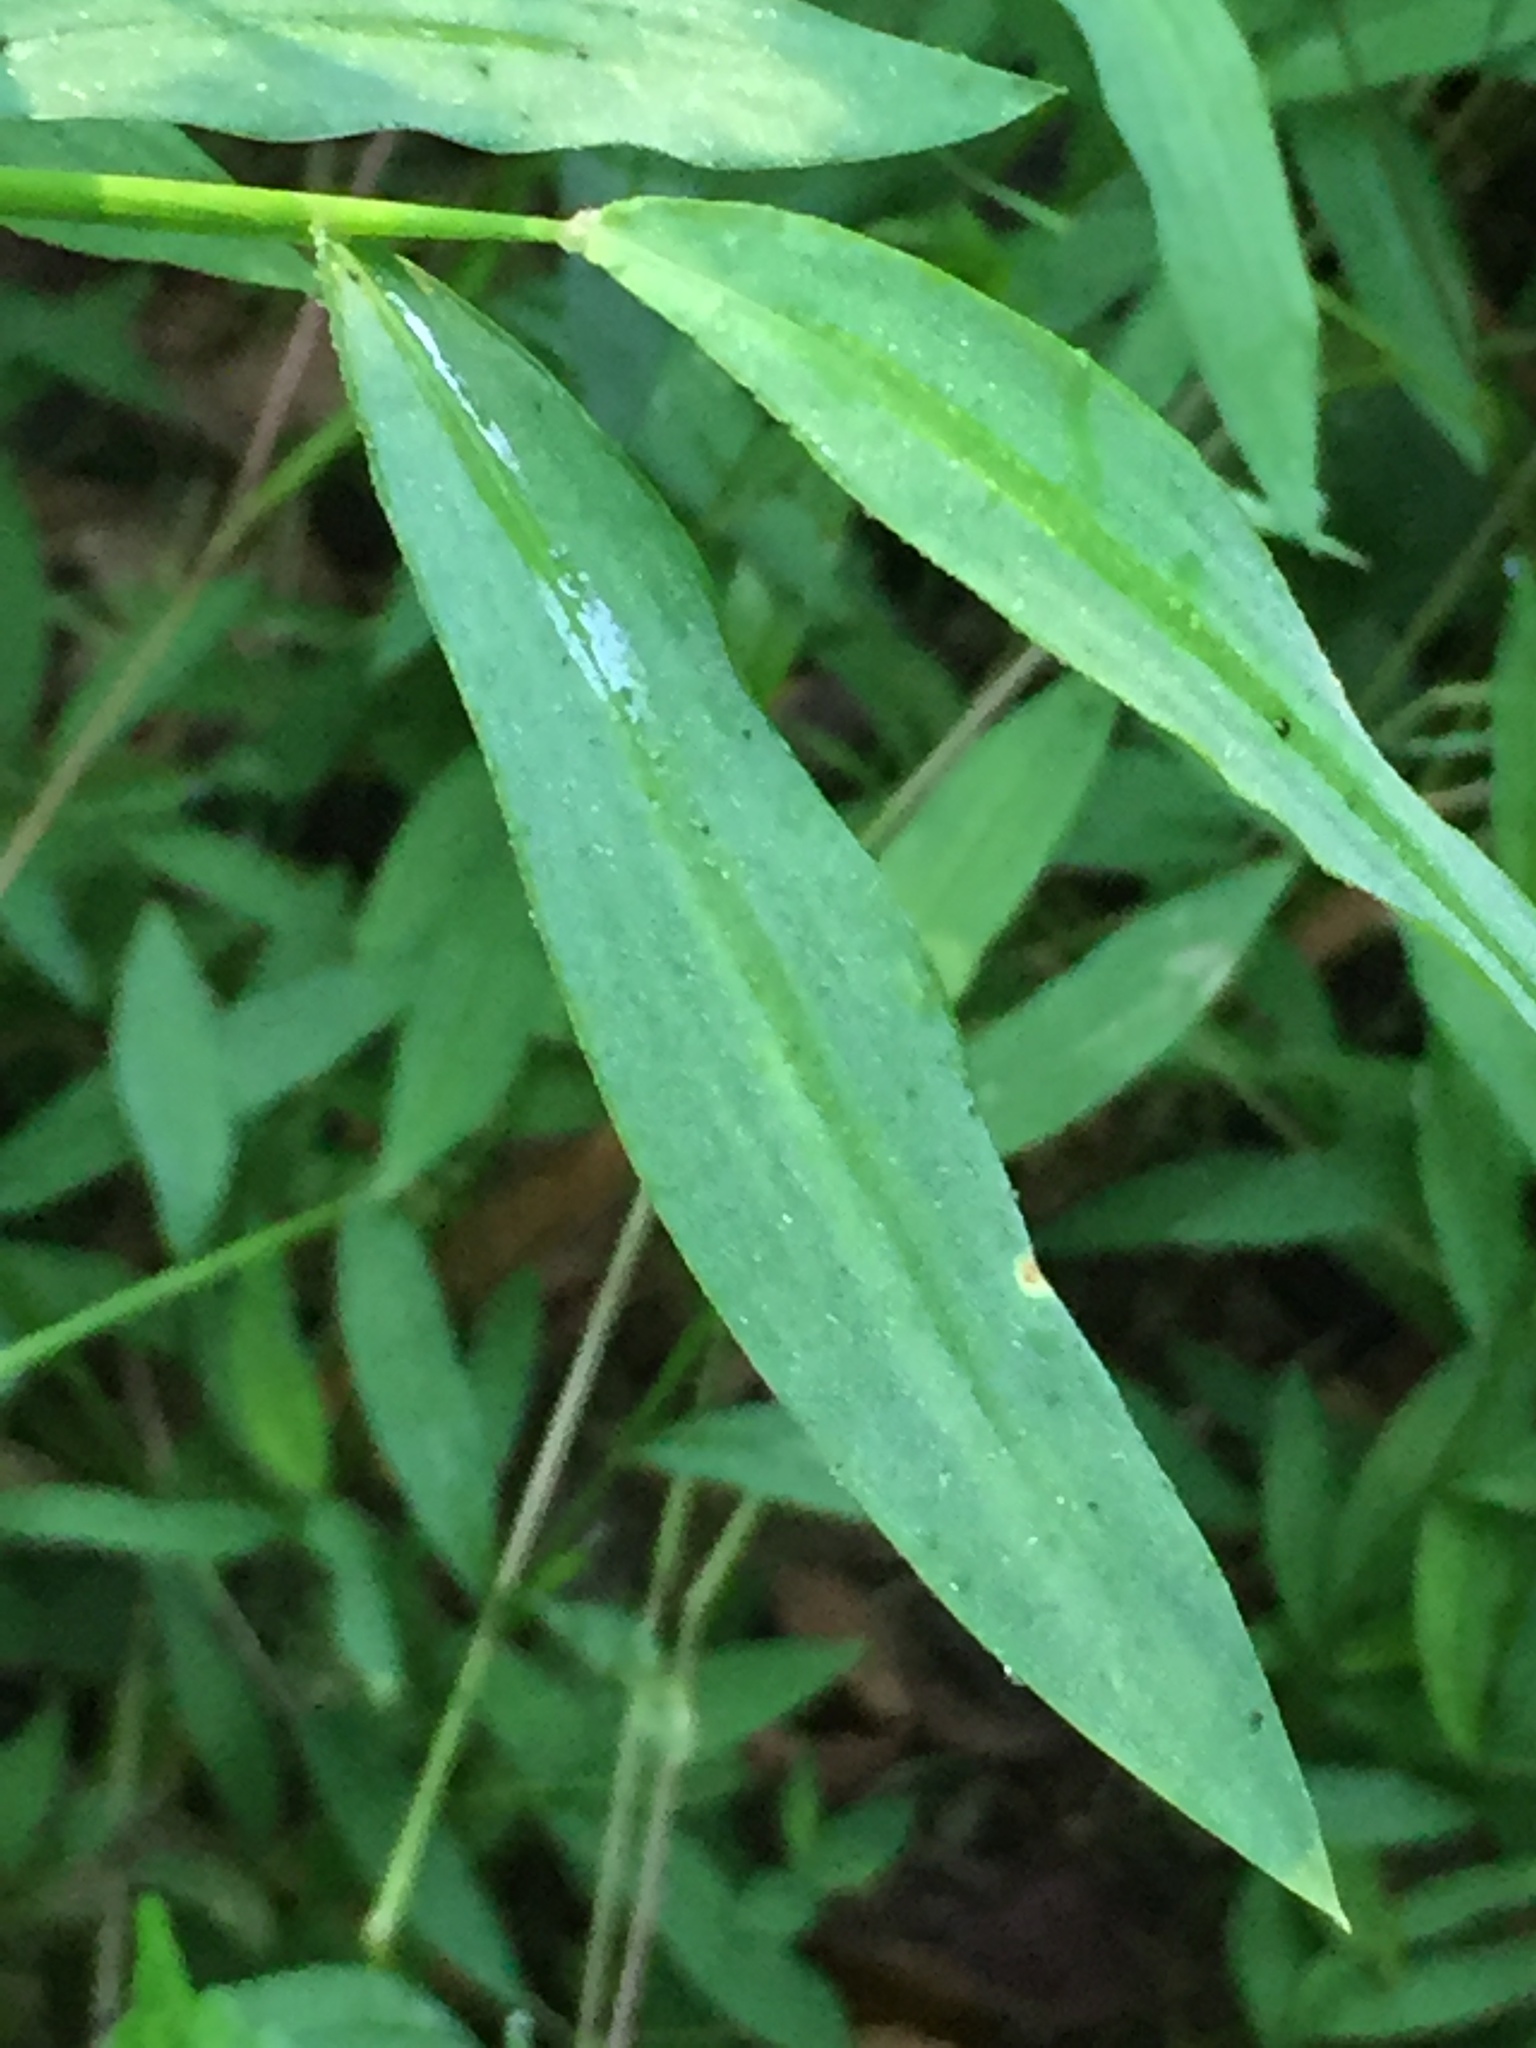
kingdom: Plantae
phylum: Tracheophyta
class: Liliopsida
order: Poales
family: Poaceae
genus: Microstegium
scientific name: Microstegium vimineum
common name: Japanese stiltgrass
